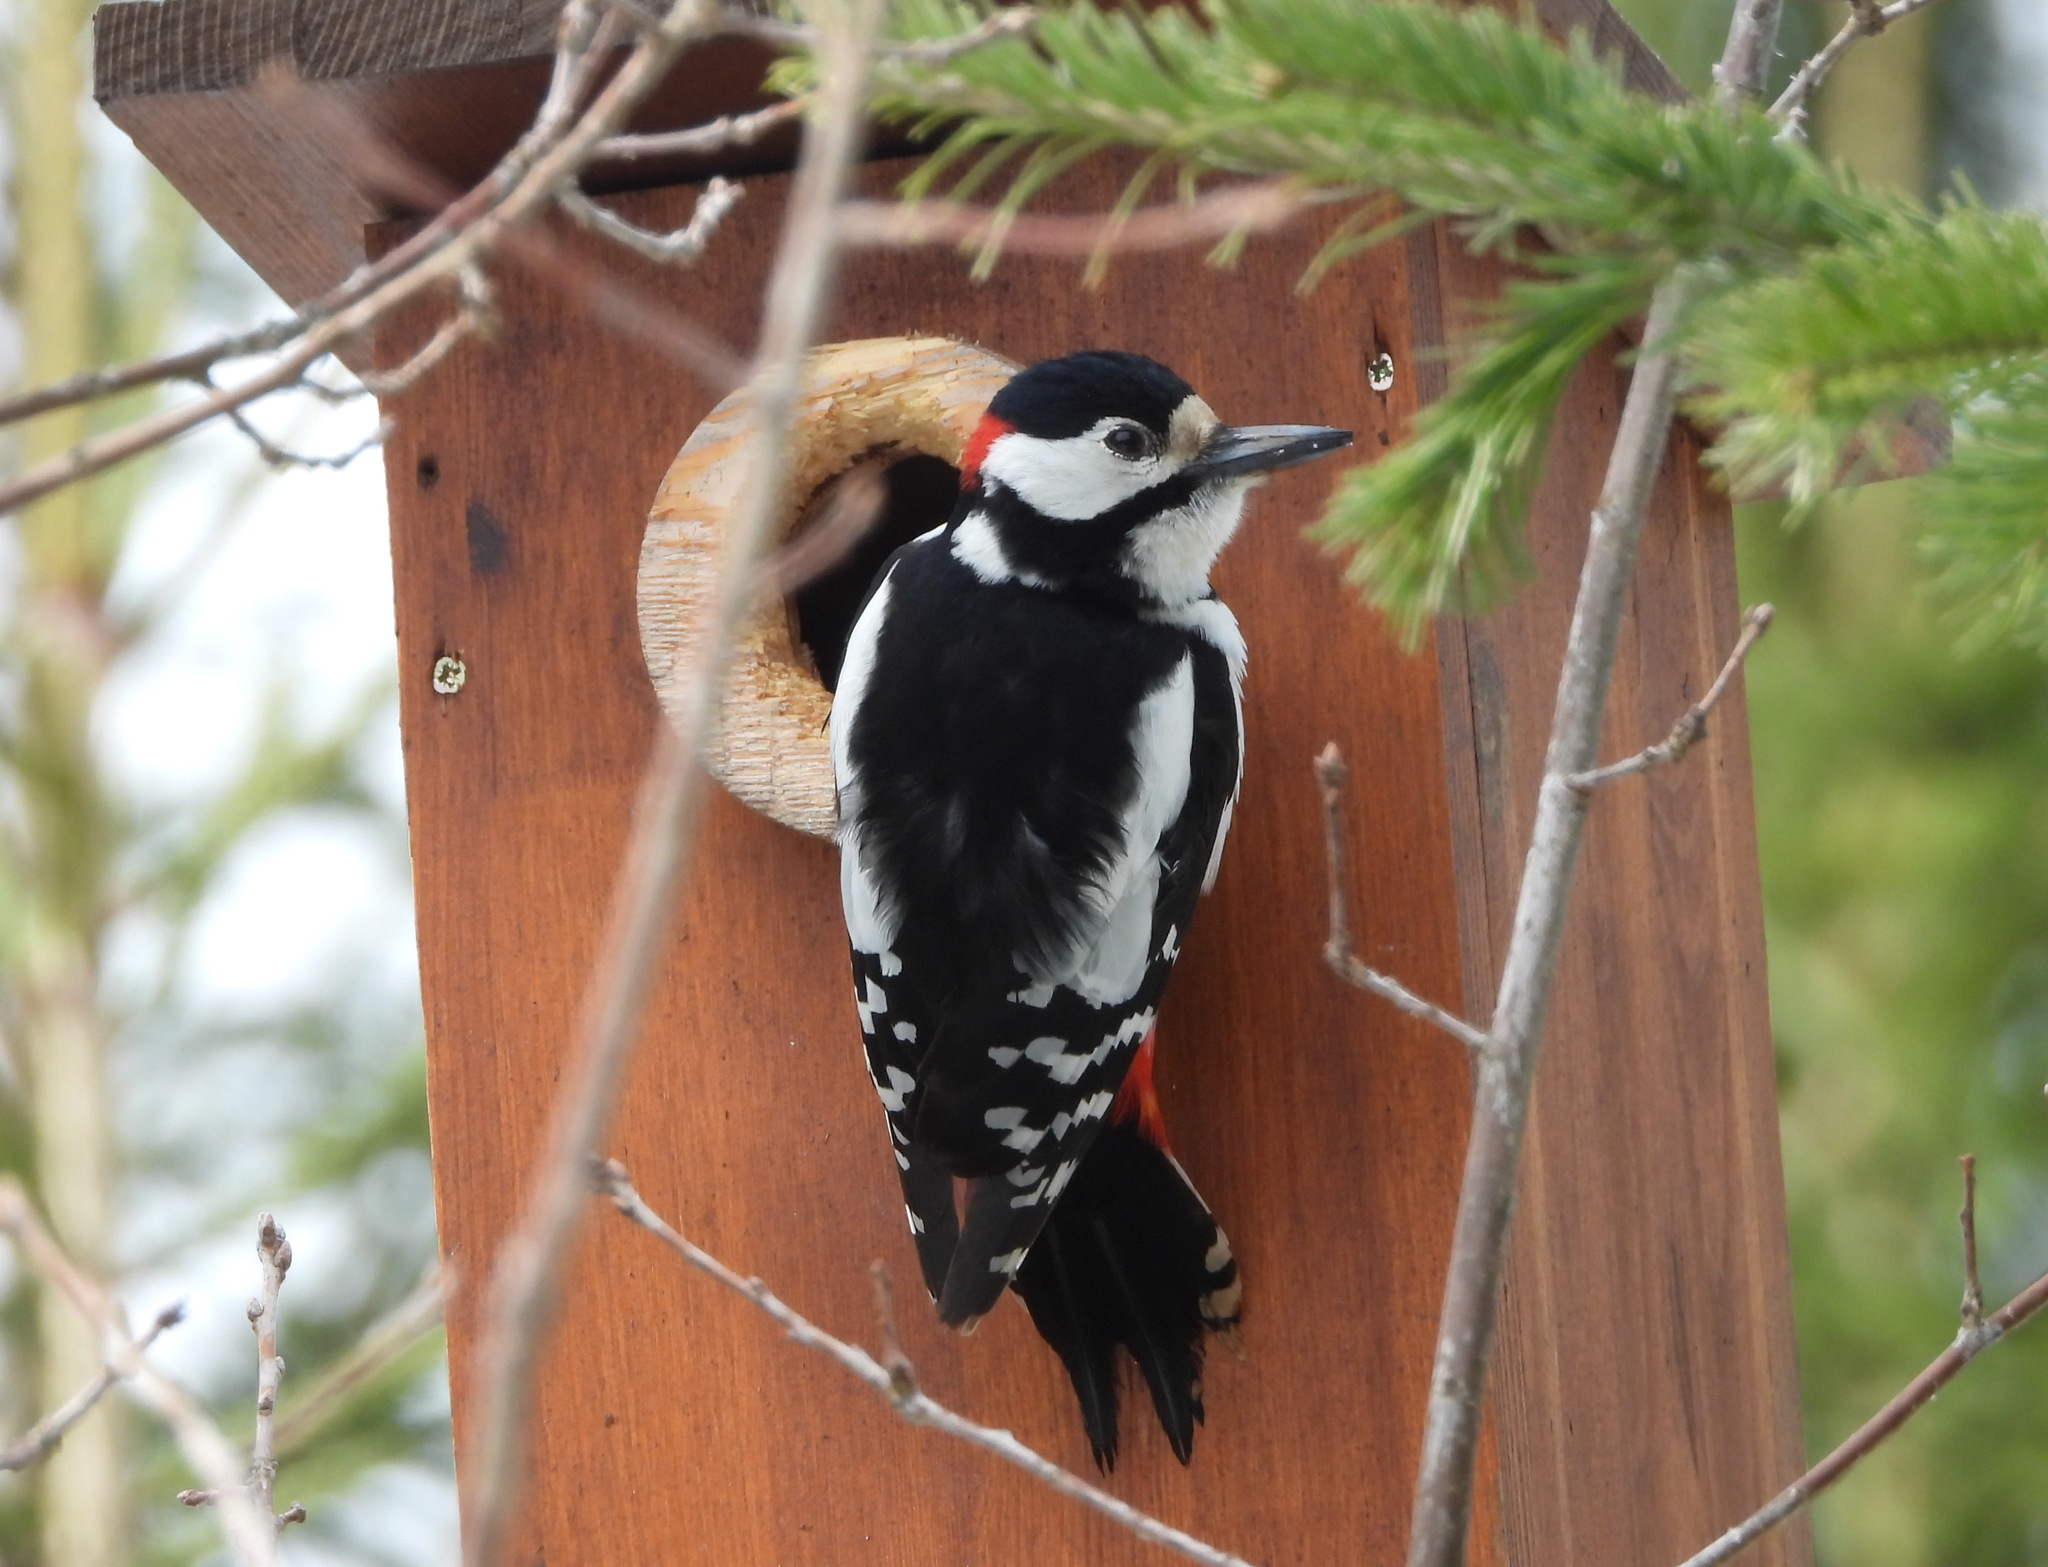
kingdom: Animalia
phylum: Chordata
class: Aves
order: Piciformes
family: Picidae
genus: Dendrocopos
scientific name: Dendrocopos major
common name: Great spotted woodpecker
